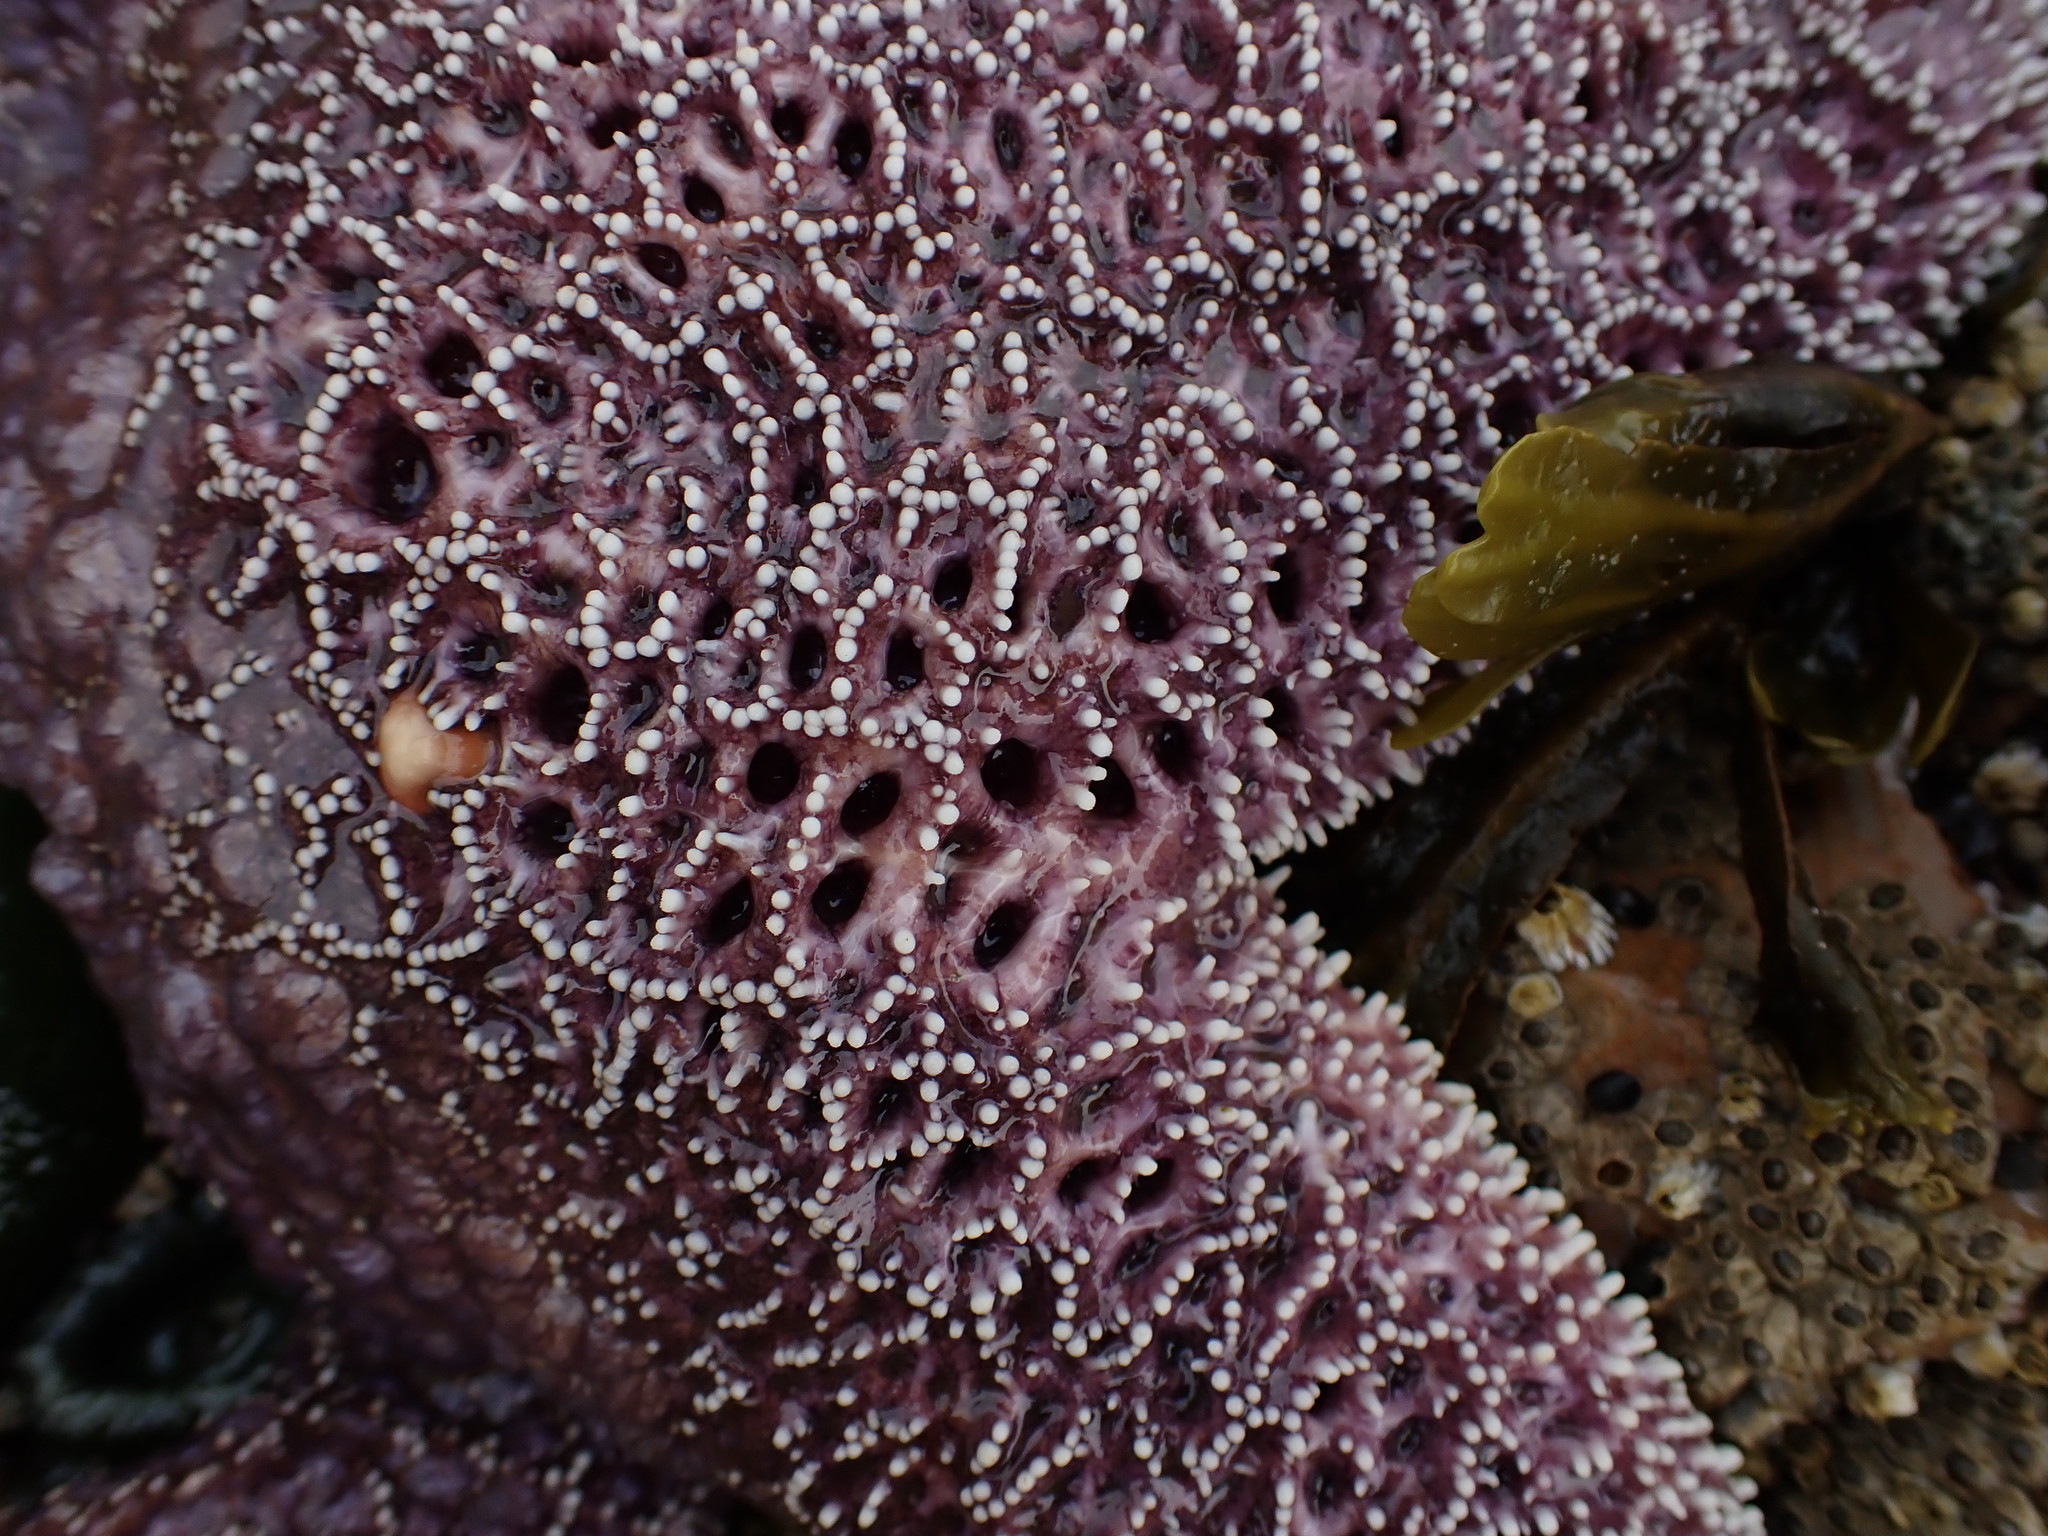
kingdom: Animalia
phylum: Echinodermata
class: Asteroidea
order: Forcipulatida
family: Asteriidae
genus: Pisaster
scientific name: Pisaster ochraceus
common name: Ochre stars
